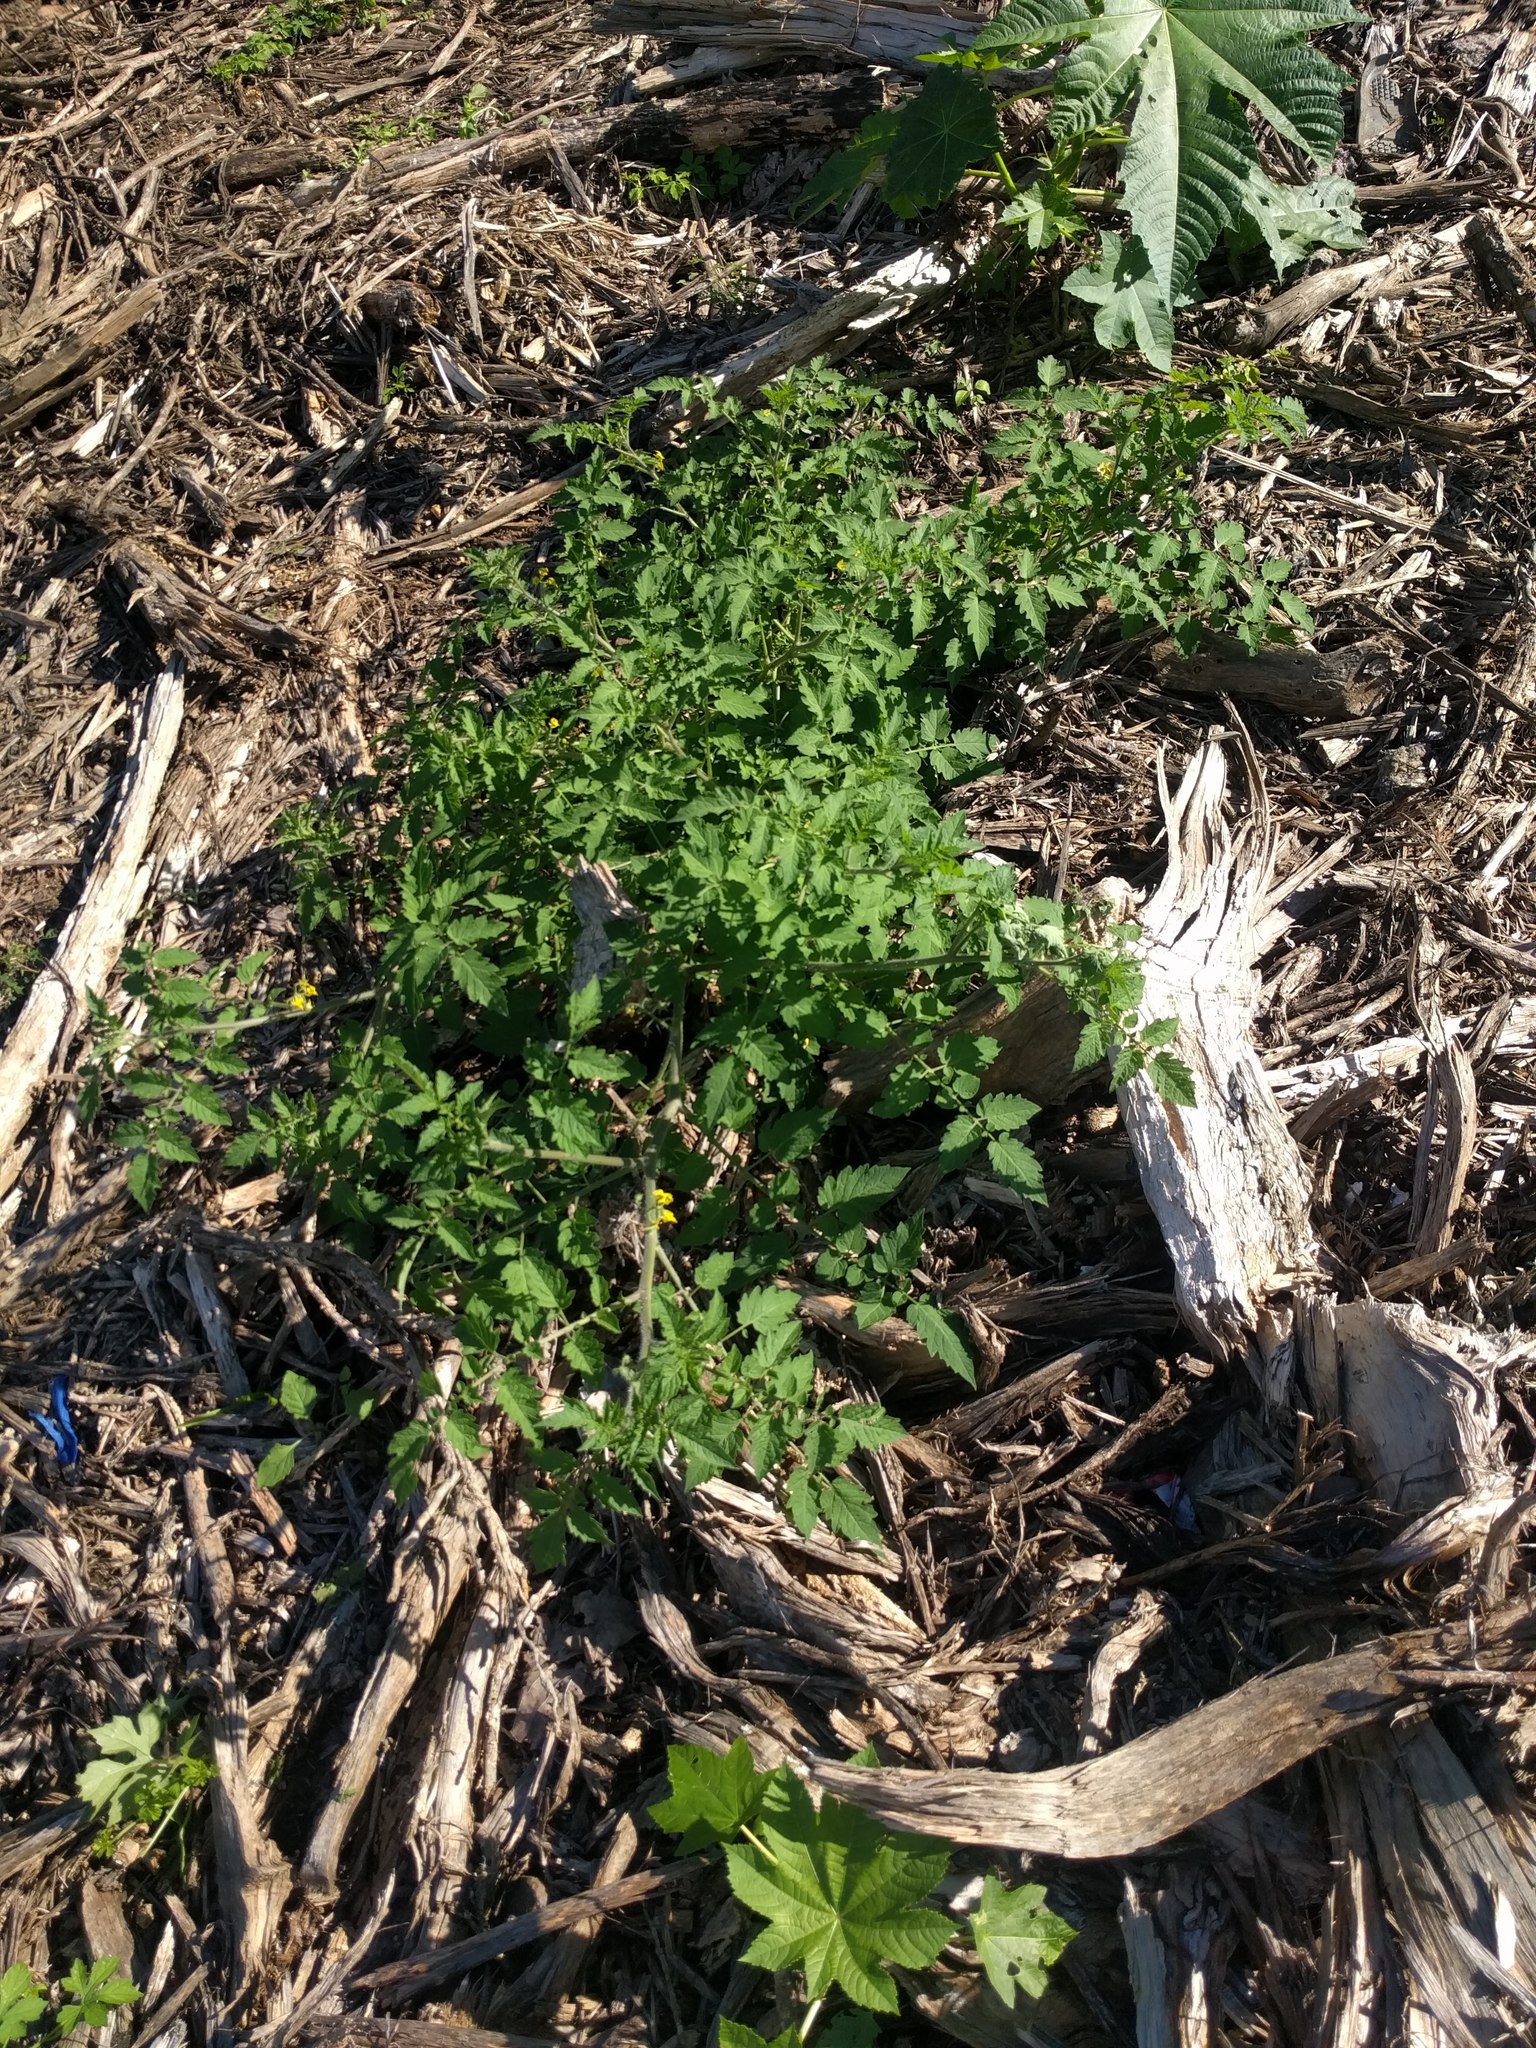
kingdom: Plantae
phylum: Tracheophyta
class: Magnoliopsida
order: Solanales
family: Solanaceae
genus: Solanum
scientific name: Solanum lycopersicum
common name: Garden tomato
